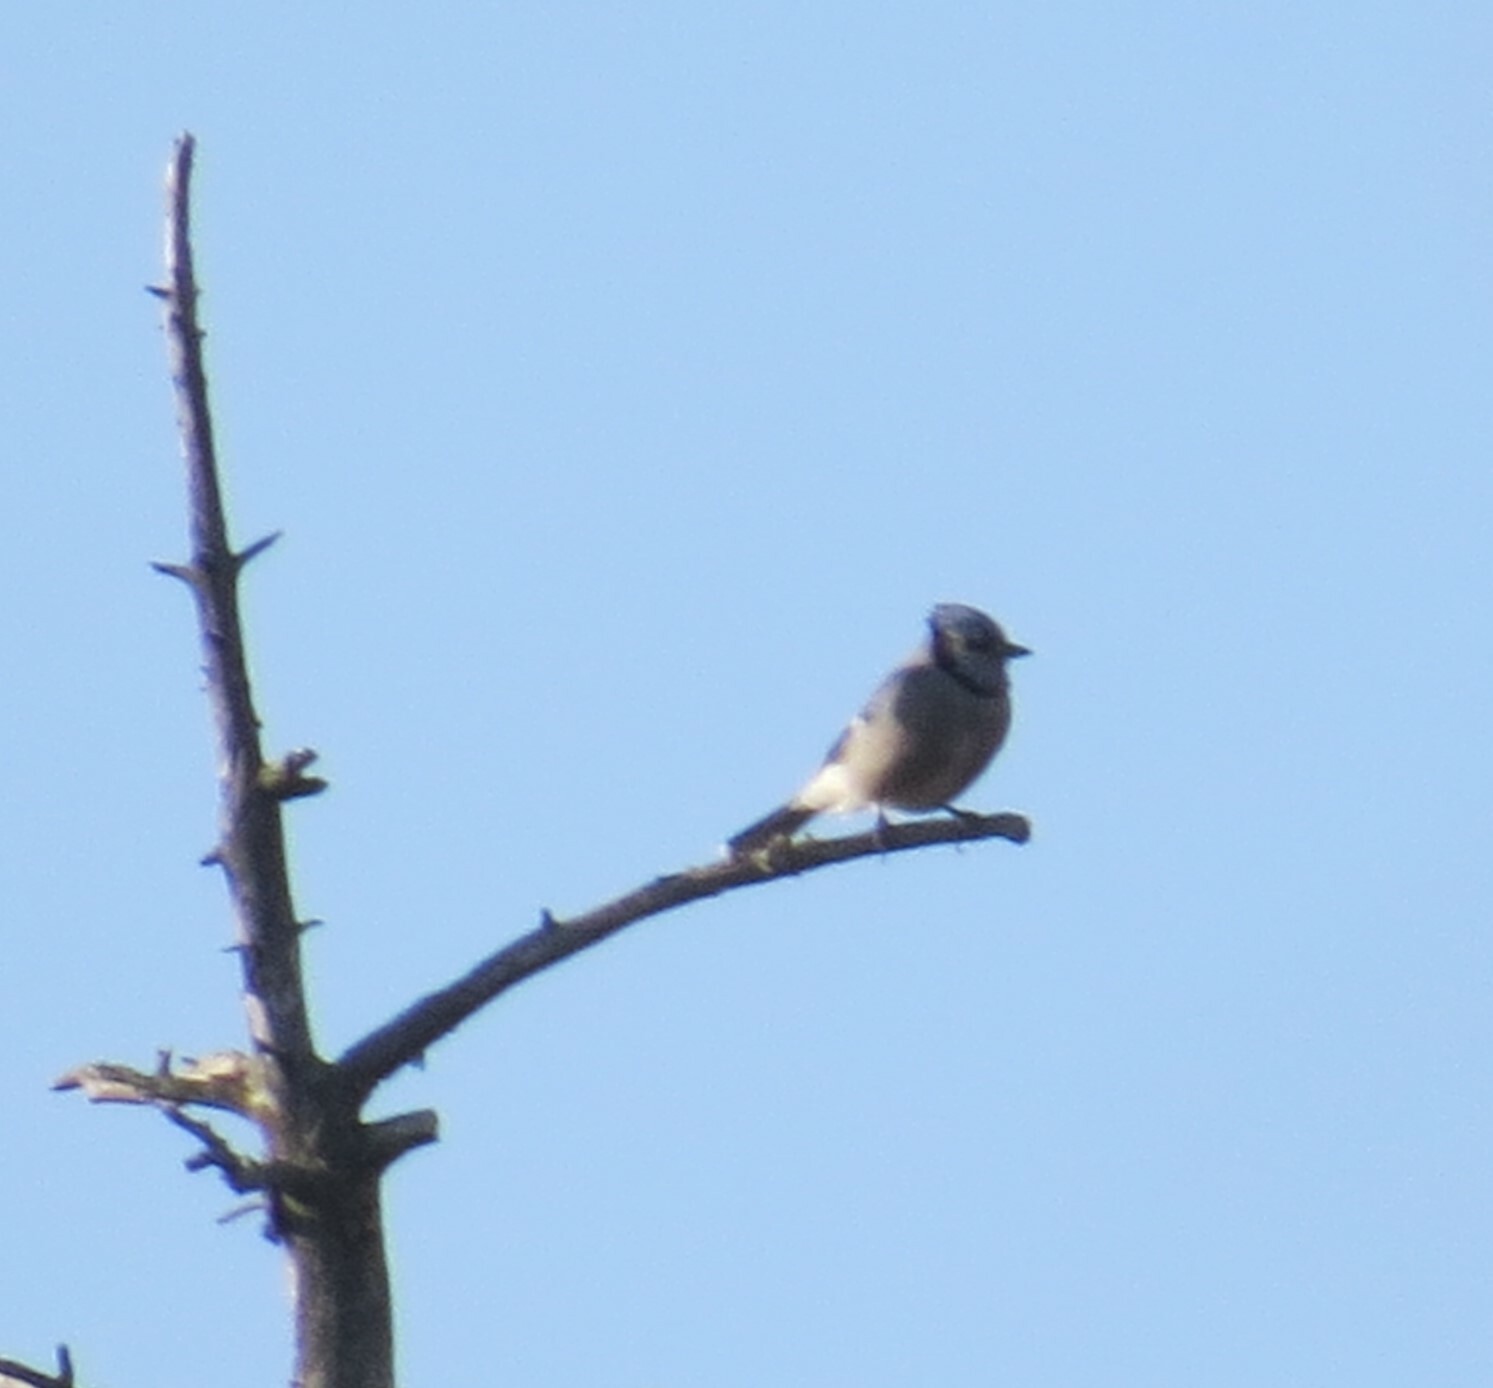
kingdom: Animalia
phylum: Chordata
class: Aves
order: Passeriformes
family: Corvidae
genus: Cyanocitta
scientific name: Cyanocitta cristata
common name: Blue jay
